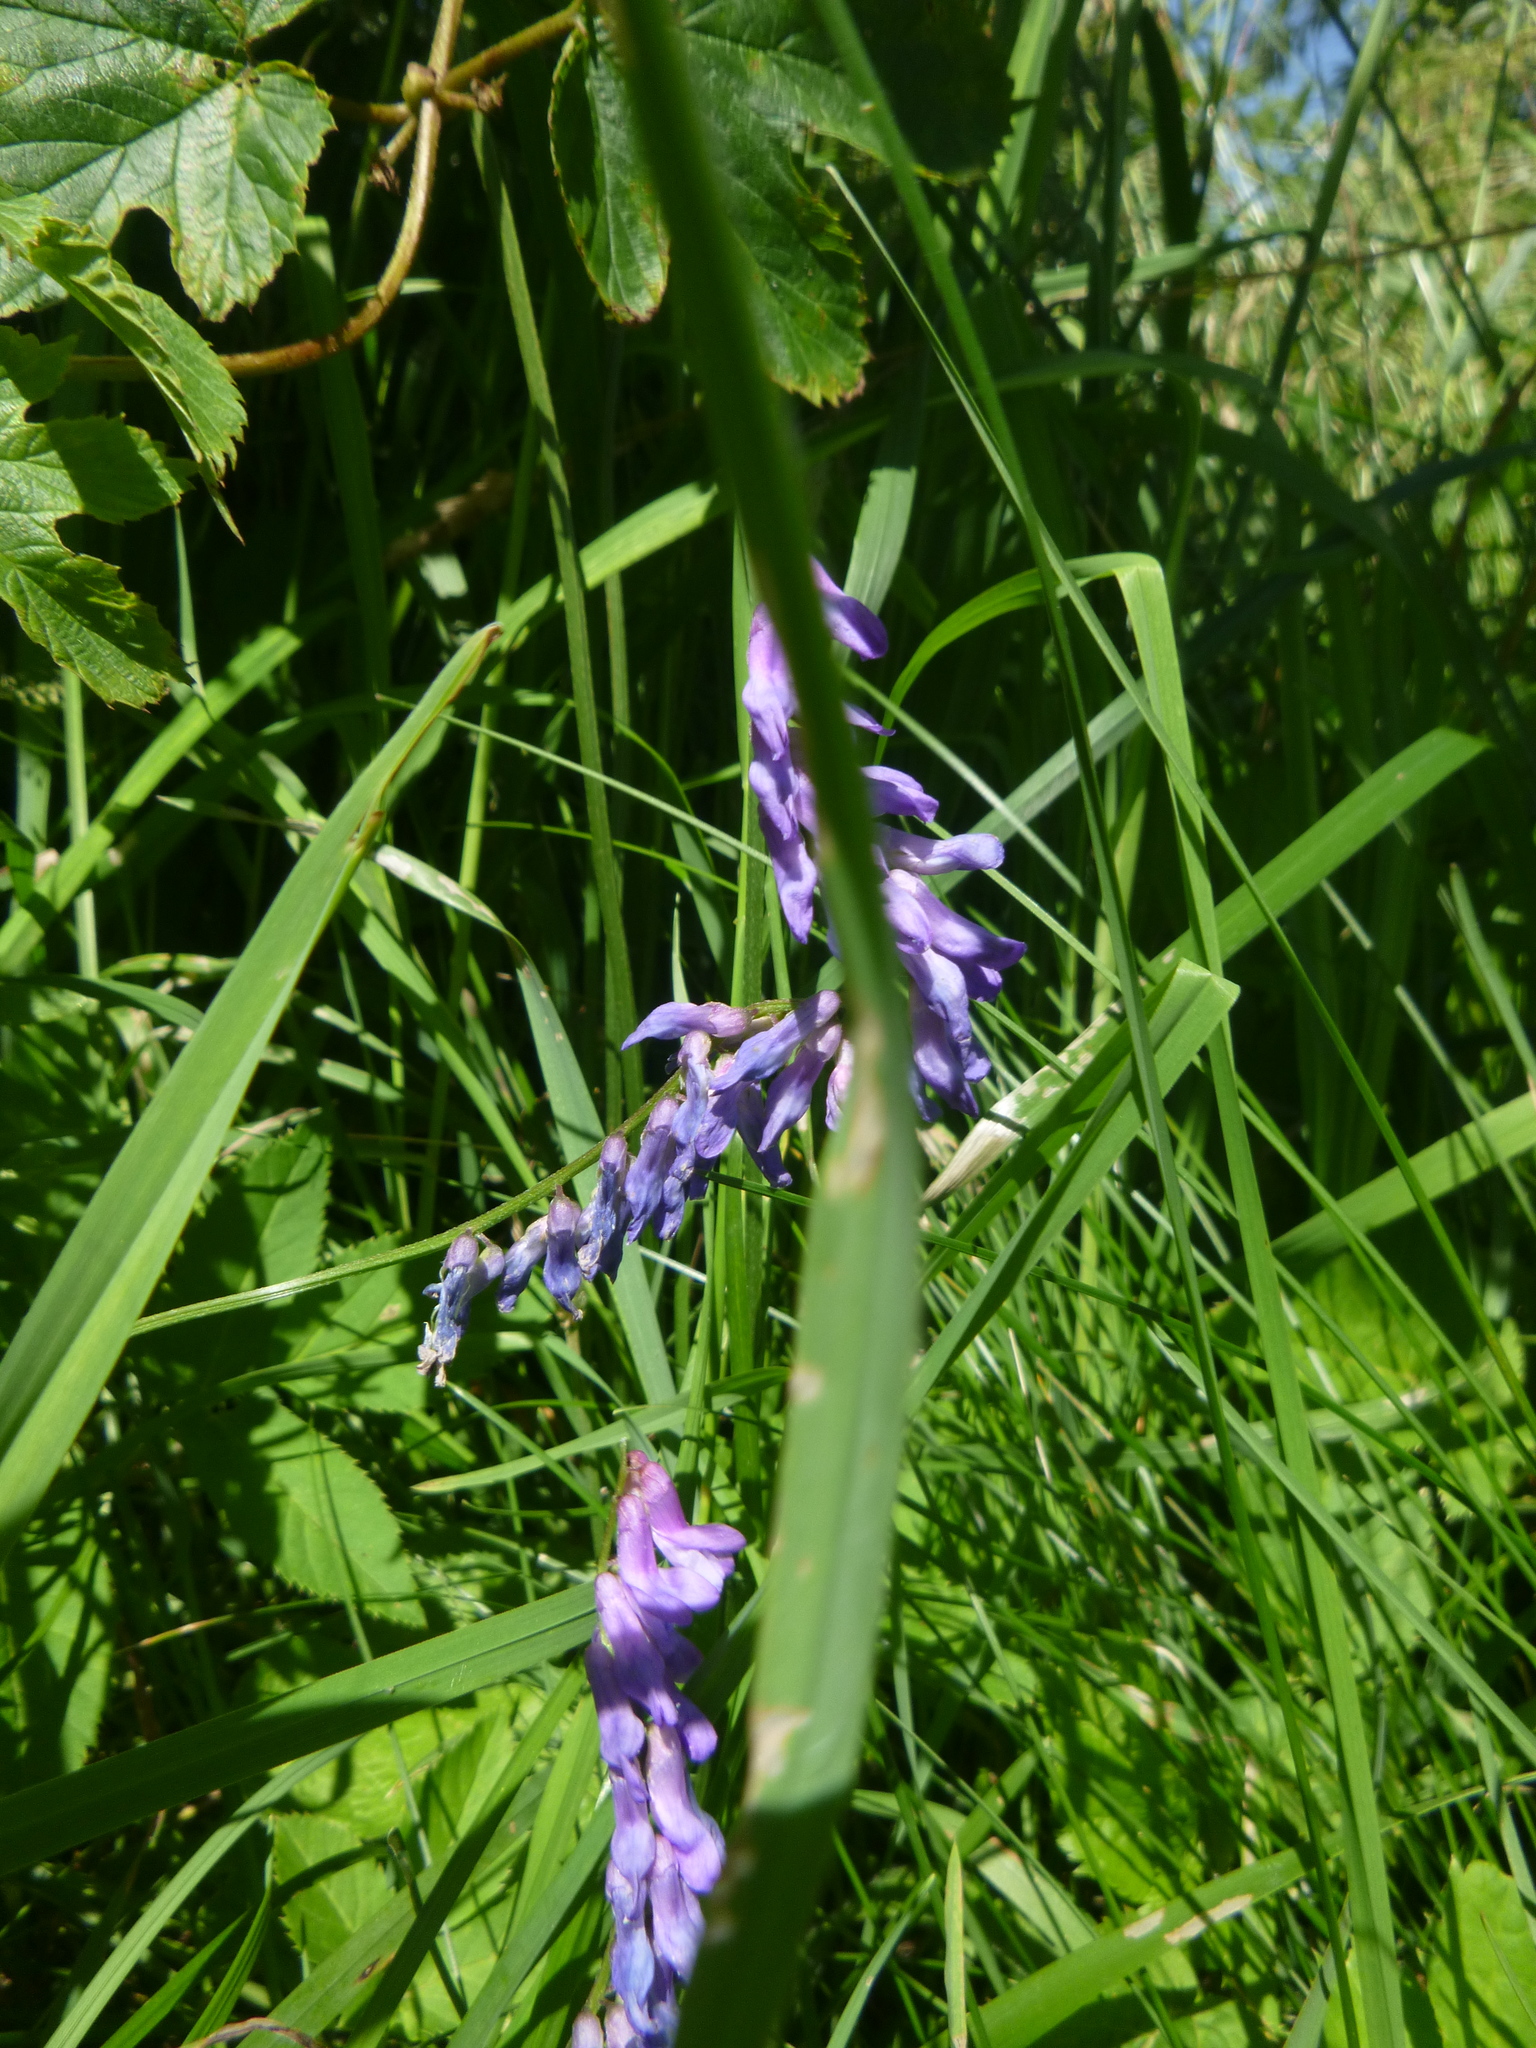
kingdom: Plantae
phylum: Tracheophyta
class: Magnoliopsida
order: Fabales
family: Fabaceae
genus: Vicia
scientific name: Vicia cracca
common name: Bird vetch
